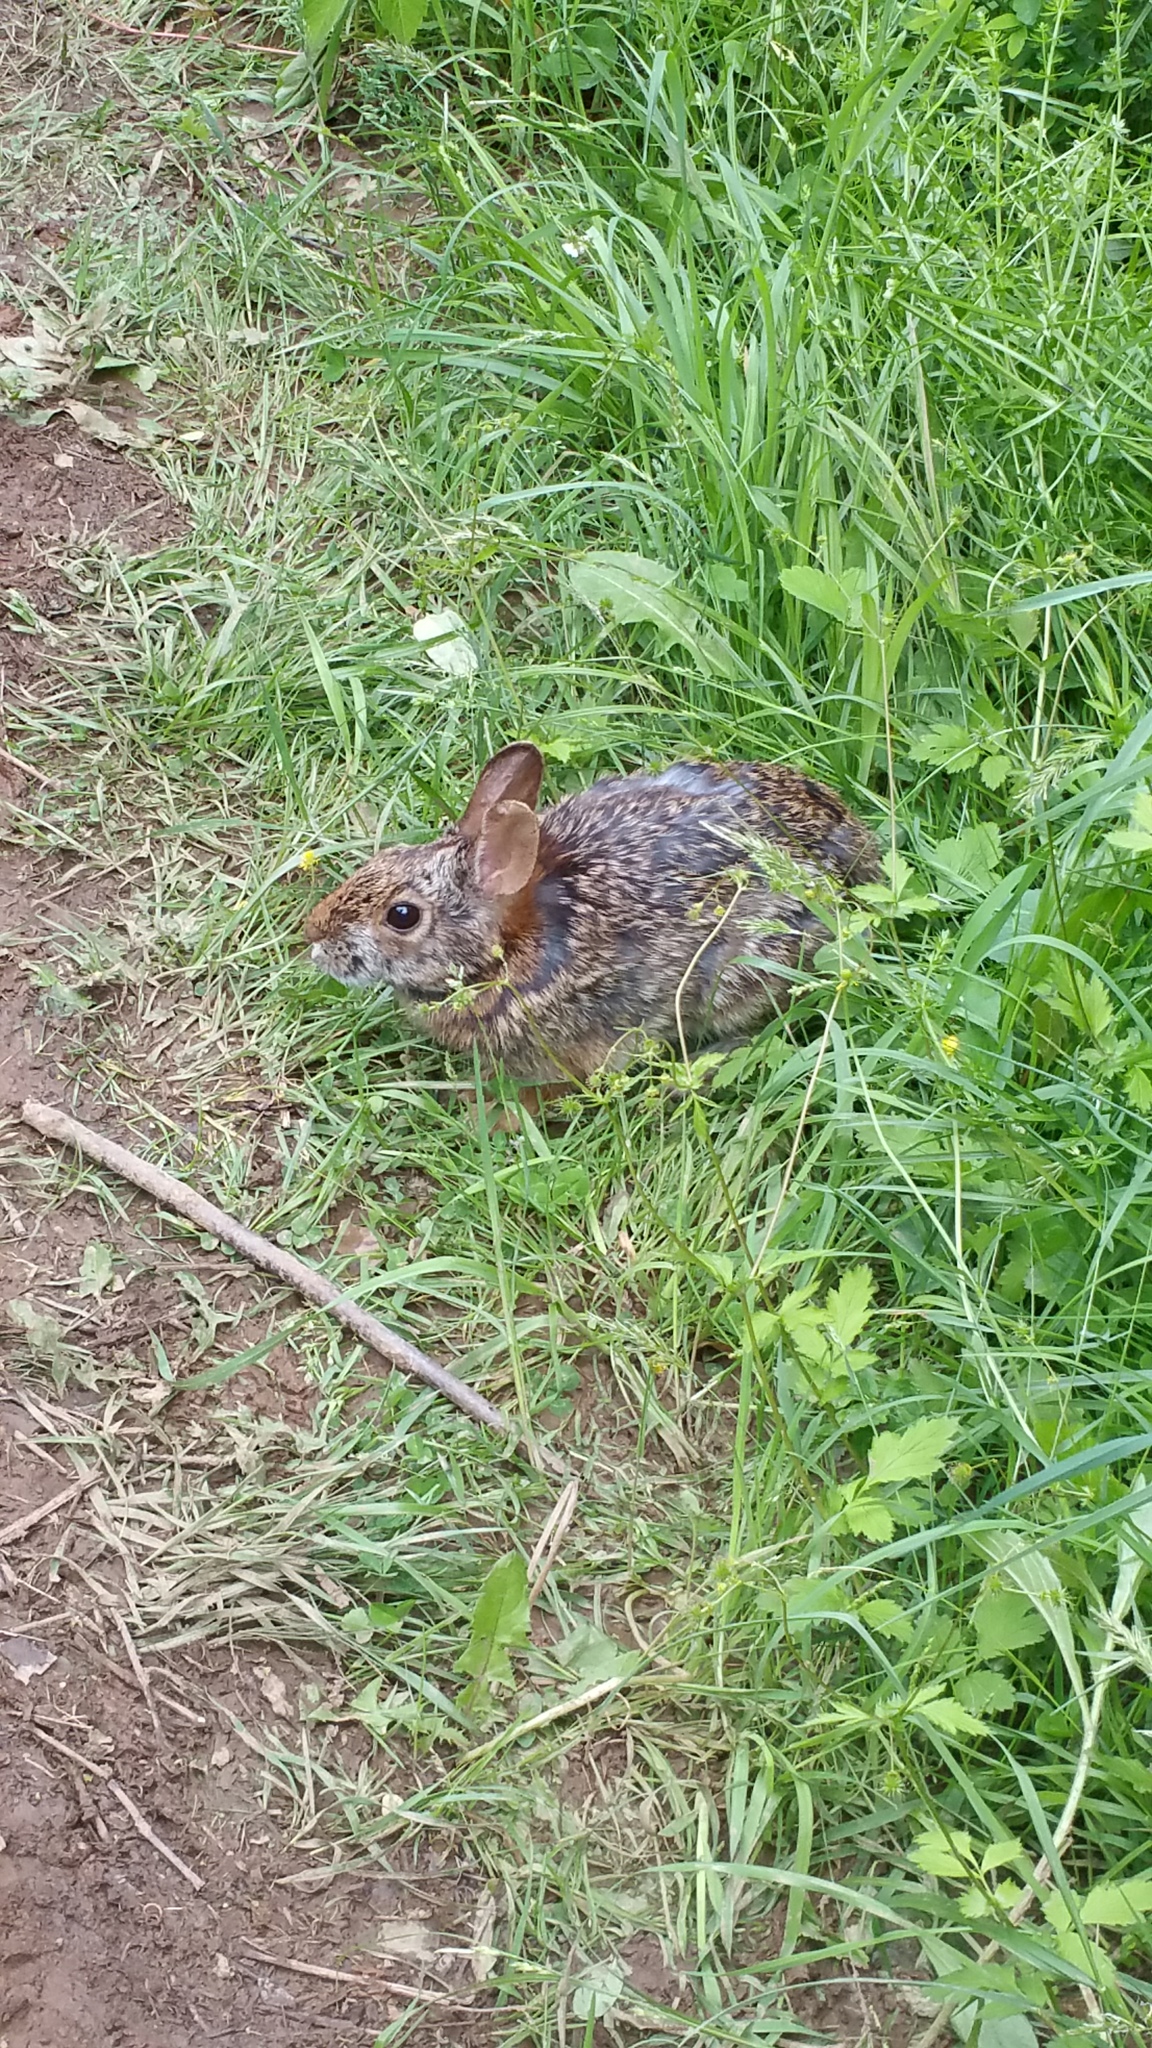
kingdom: Animalia
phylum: Chordata
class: Mammalia
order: Lagomorpha
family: Leporidae
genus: Sylvilagus
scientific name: Sylvilagus floridanus
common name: Eastern cottontail
